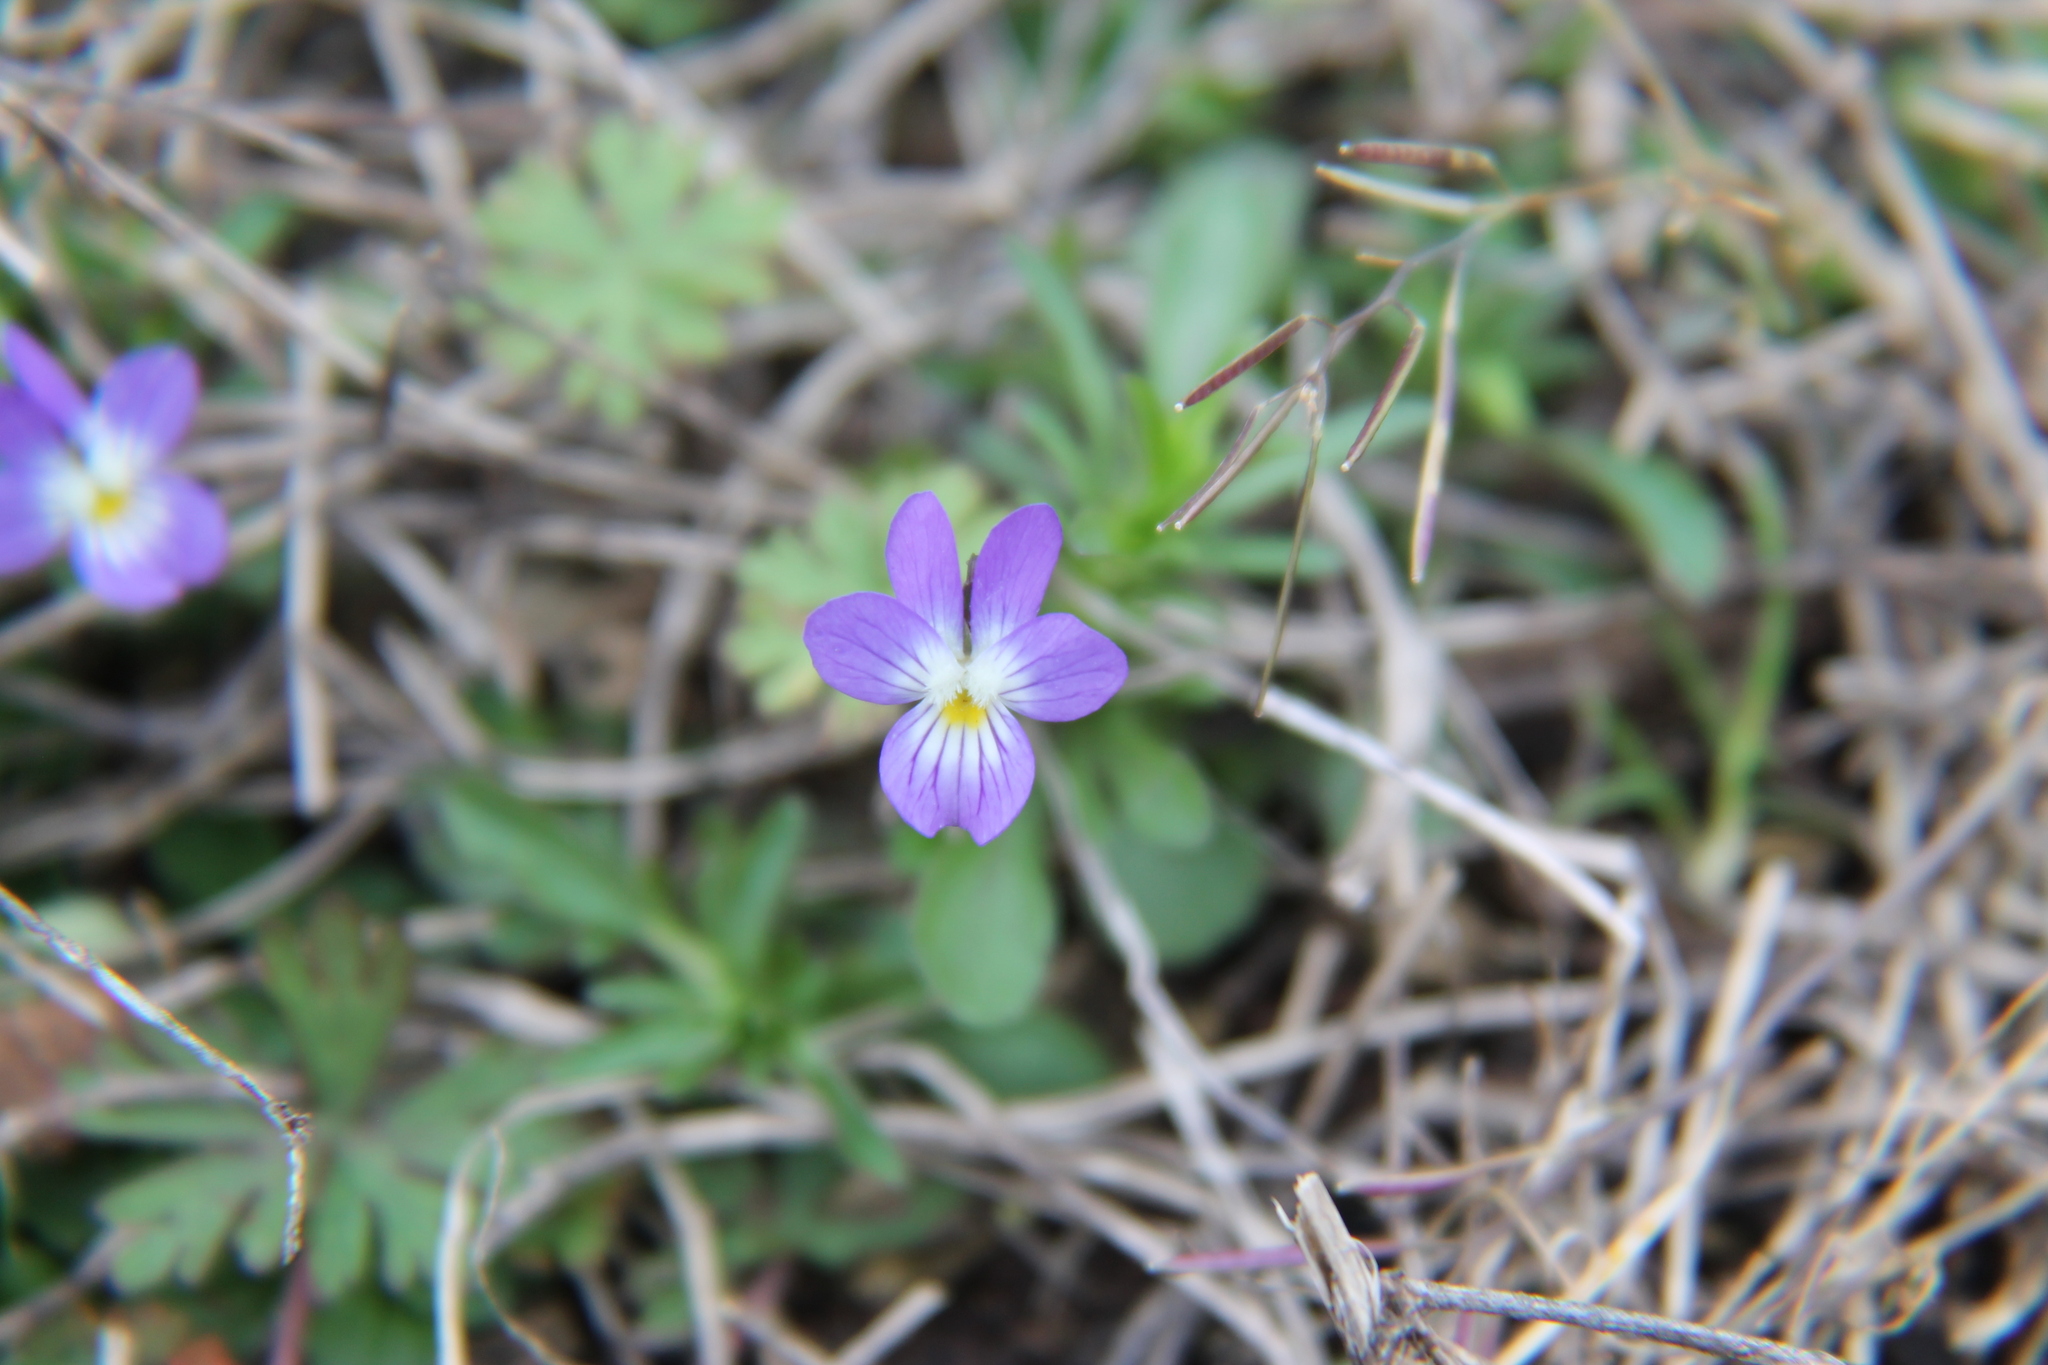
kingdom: Plantae
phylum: Tracheophyta
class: Magnoliopsida
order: Malpighiales
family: Violaceae
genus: Viola
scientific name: Viola rafinesquei
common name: American field pansy
